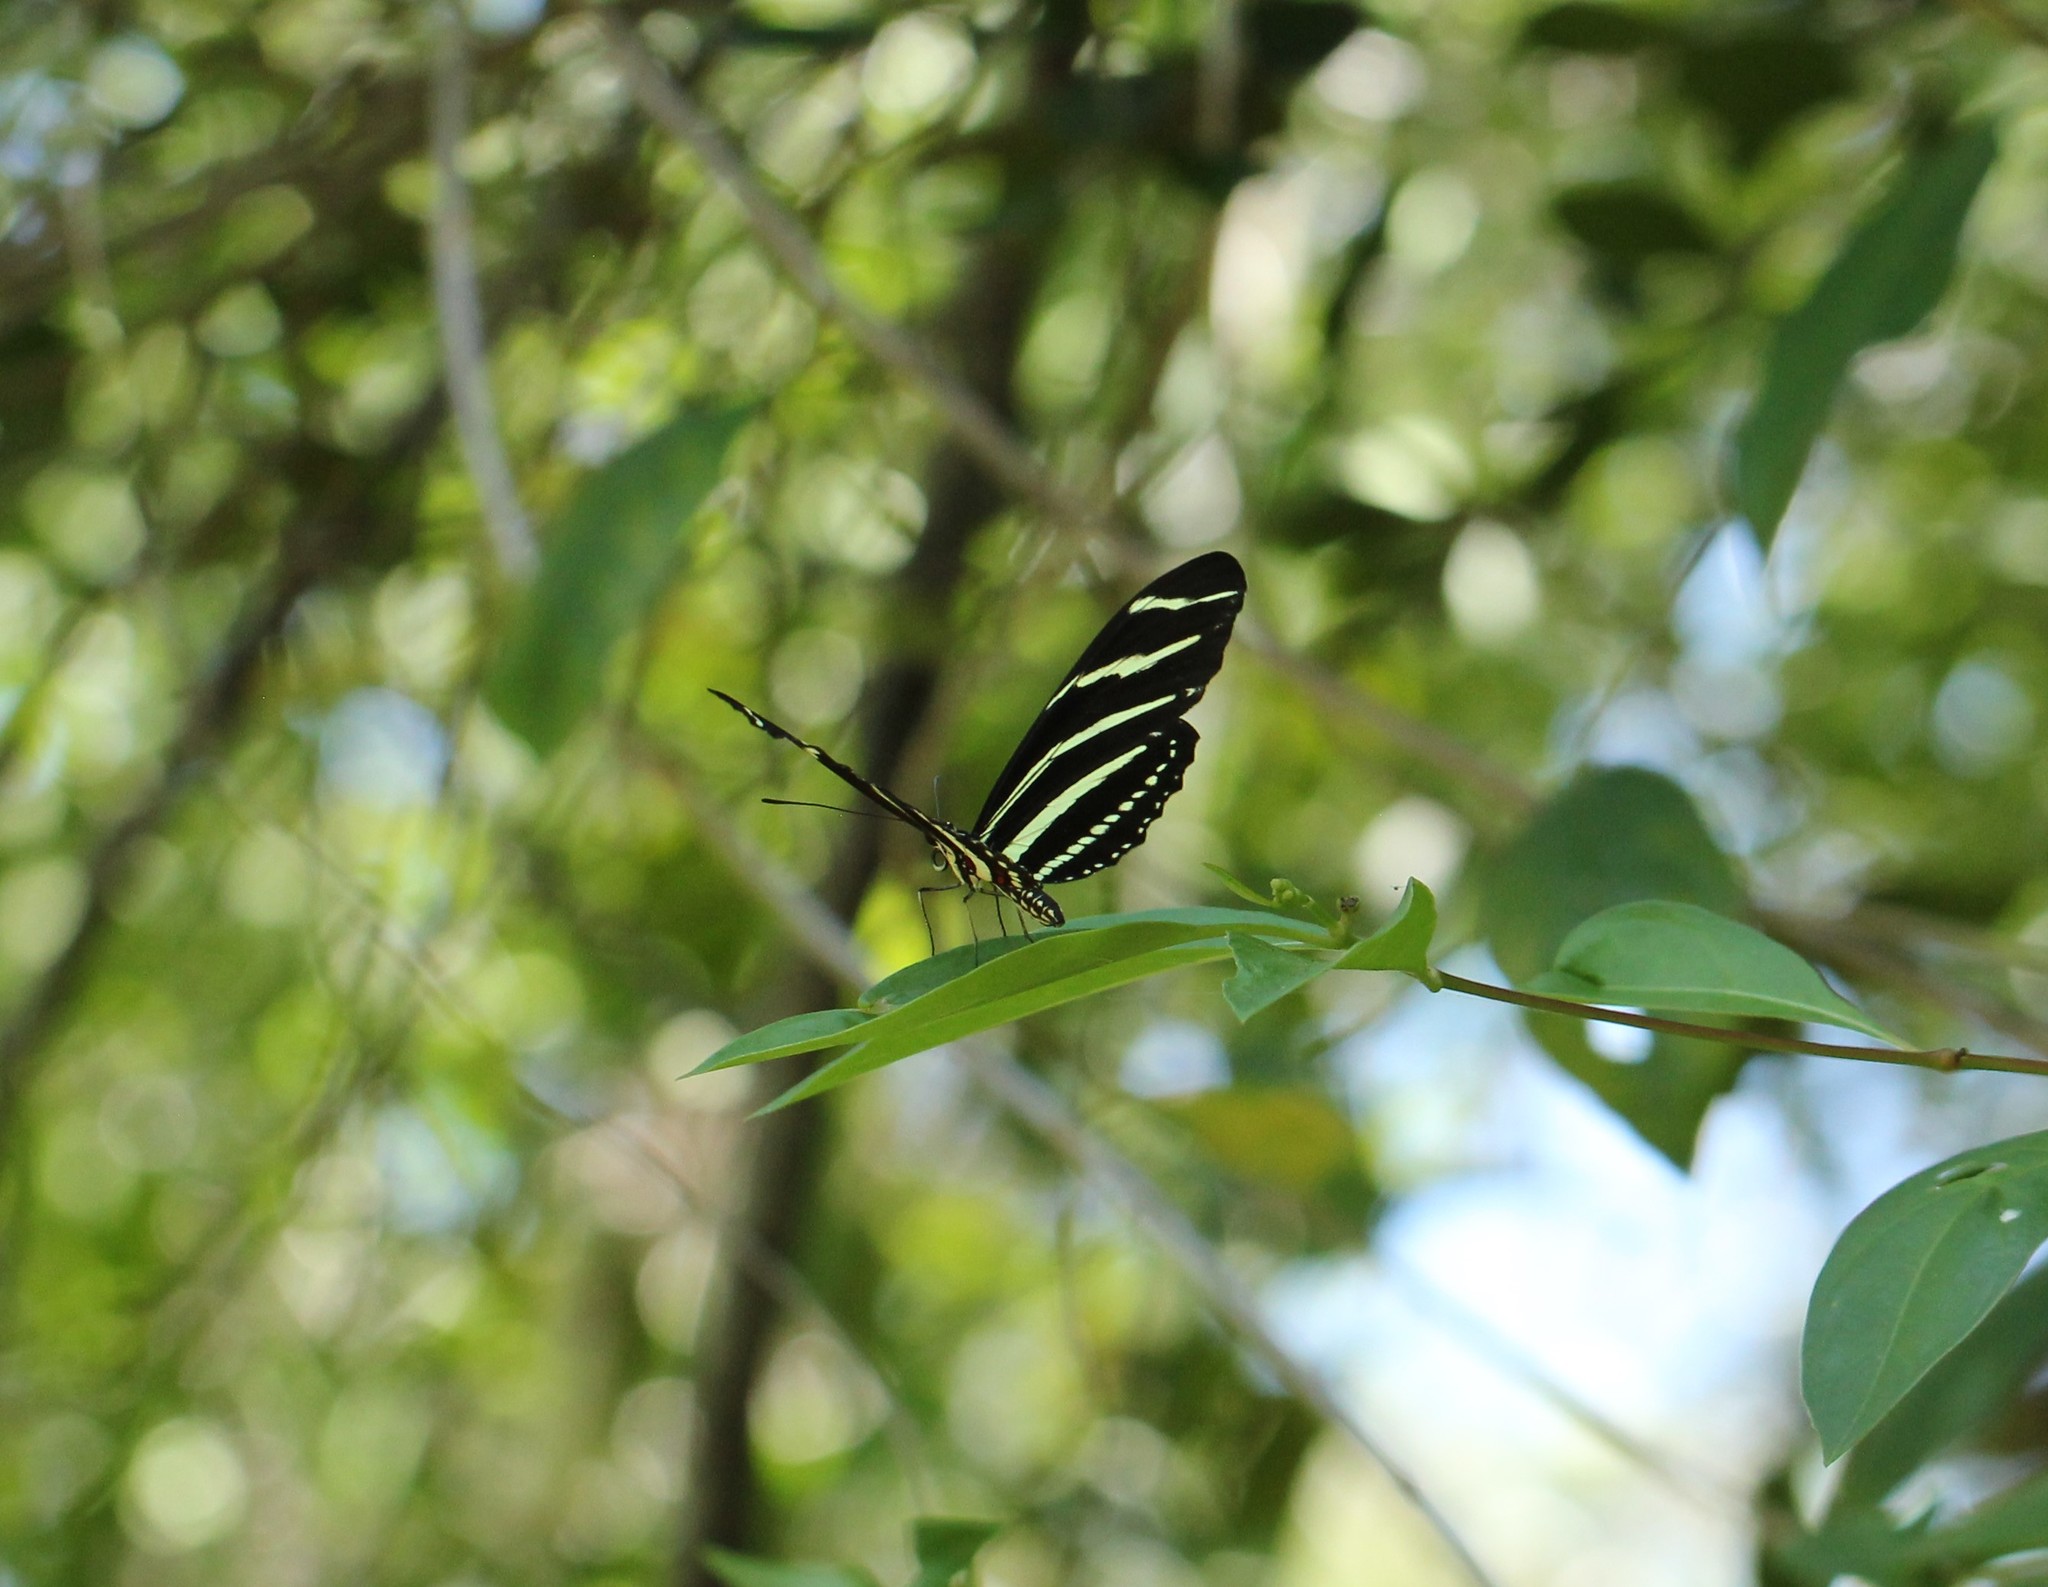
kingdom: Animalia
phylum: Arthropoda
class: Insecta
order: Lepidoptera
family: Nymphalidae
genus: Heliconius
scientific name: Heliconius charithonia
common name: Zebra long wing
